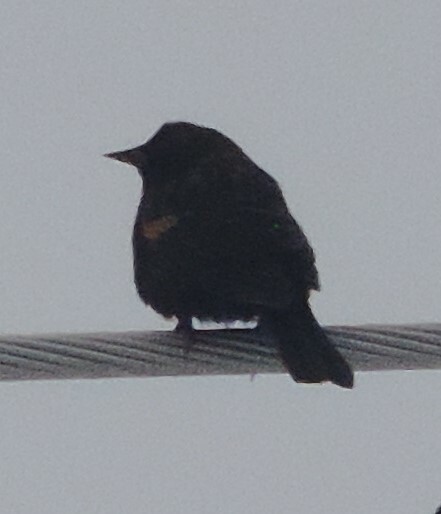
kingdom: Animalia
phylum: Chordata
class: Aves
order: Passeriformes
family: Icteridae
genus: Agelaius
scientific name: Agelaius phoeniceus
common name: Red-winged blackbird
